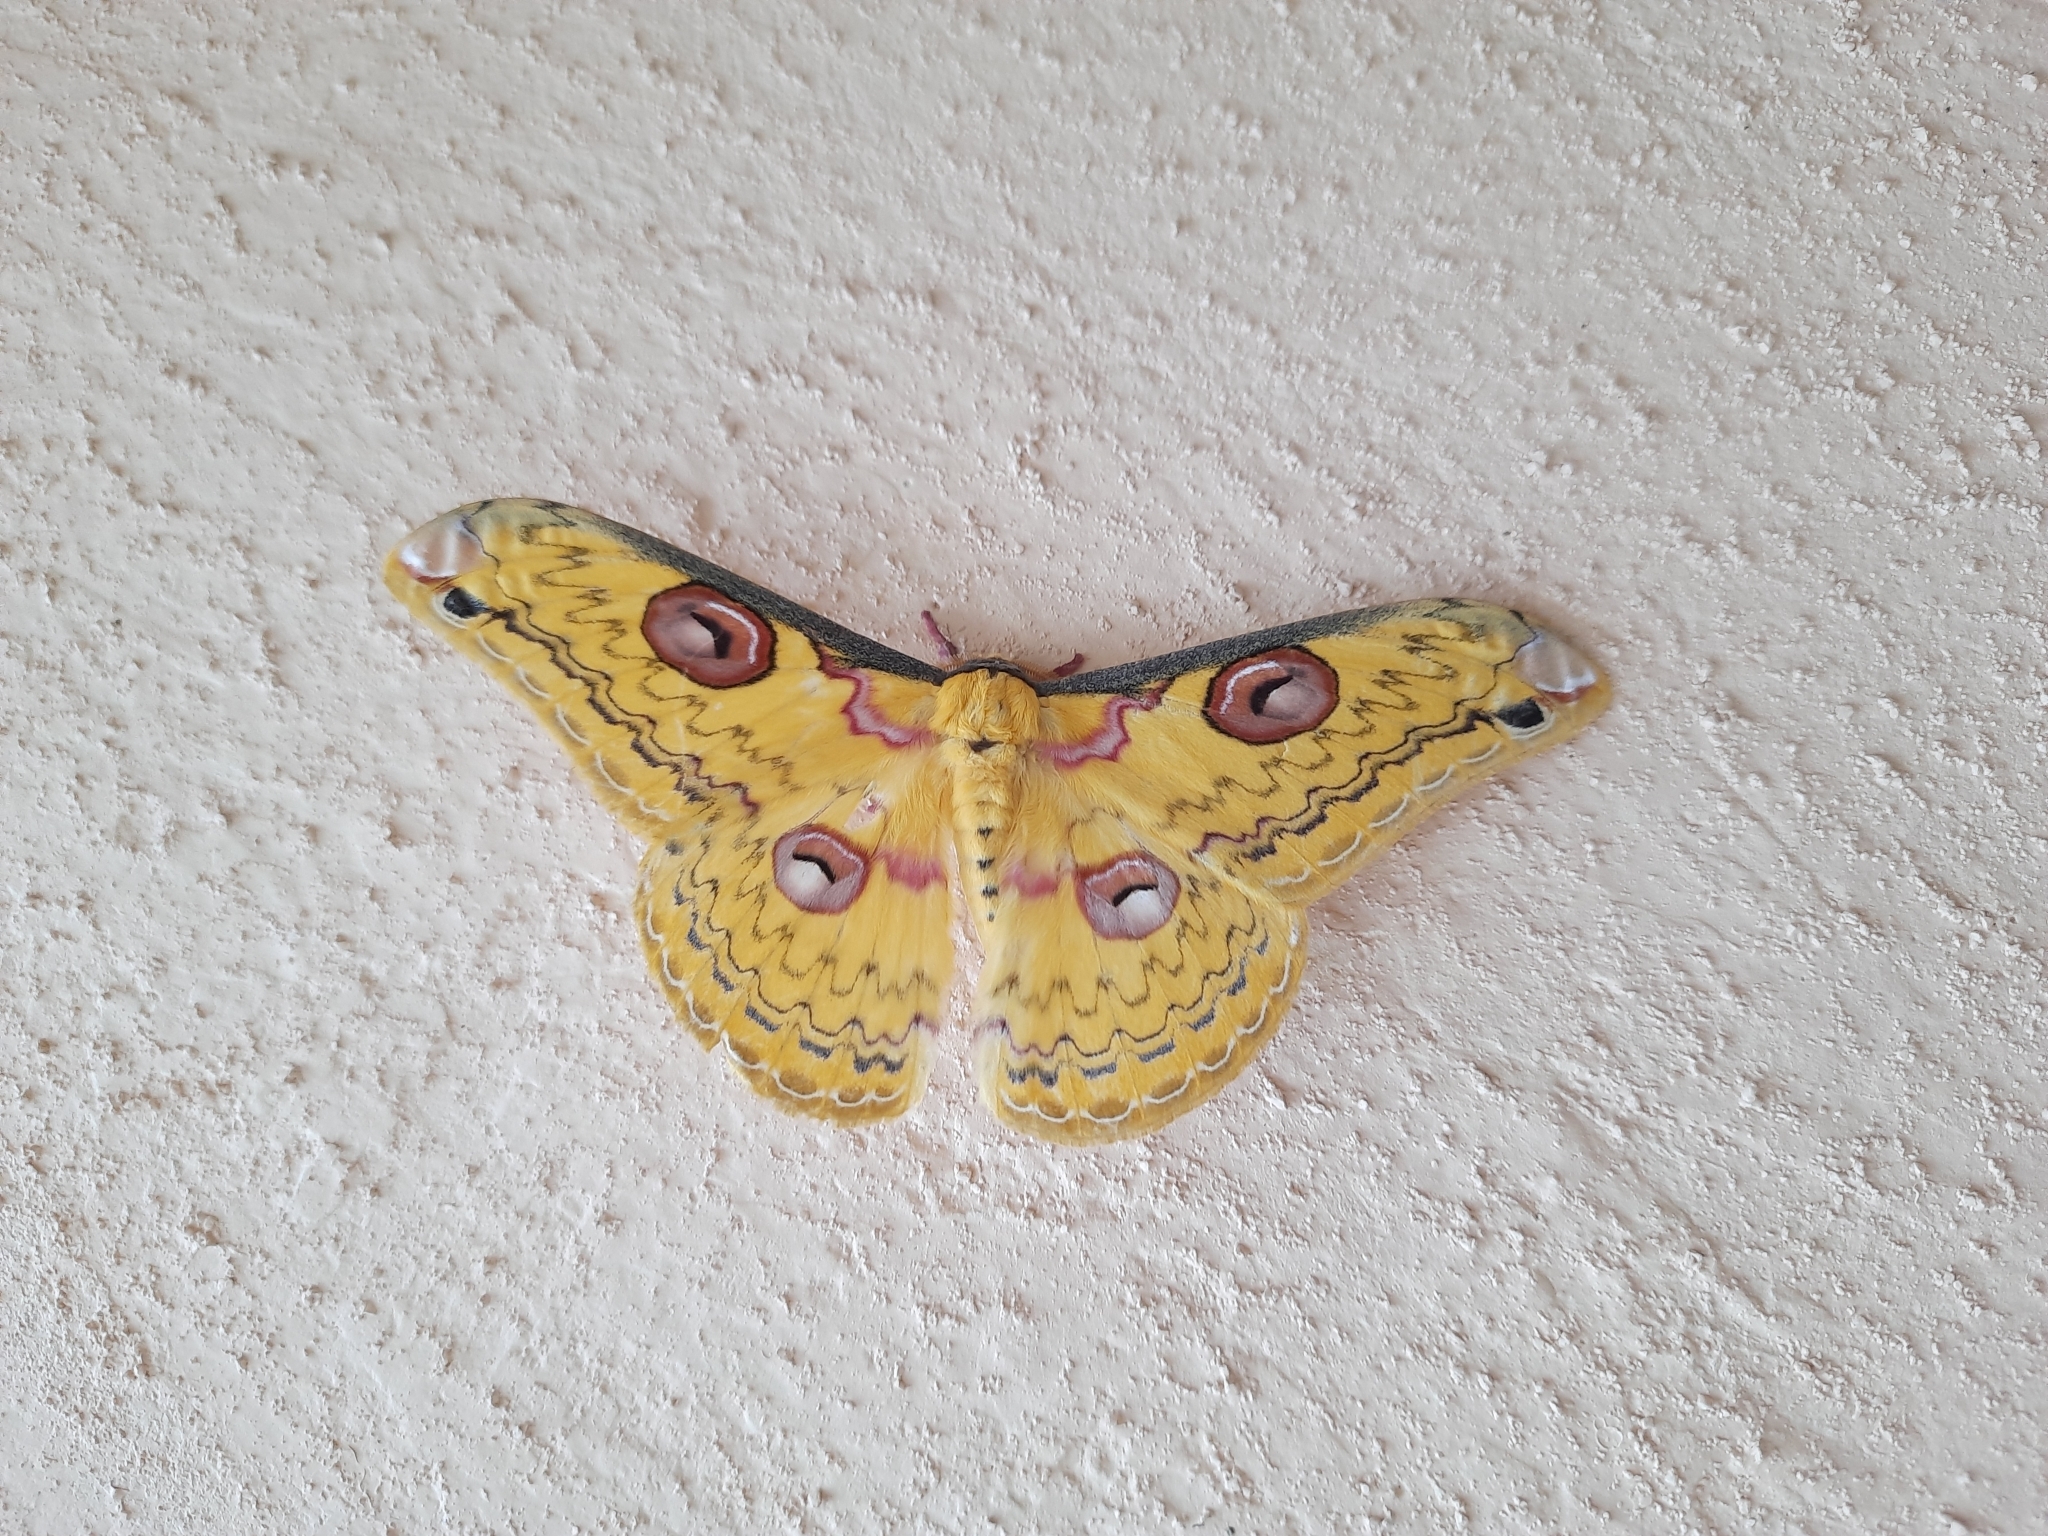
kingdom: Animalia
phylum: Arthropoda
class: Insecta
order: Lepidoptera
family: Saturniidae
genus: Loepa
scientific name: Loepa schintlmeisteri
